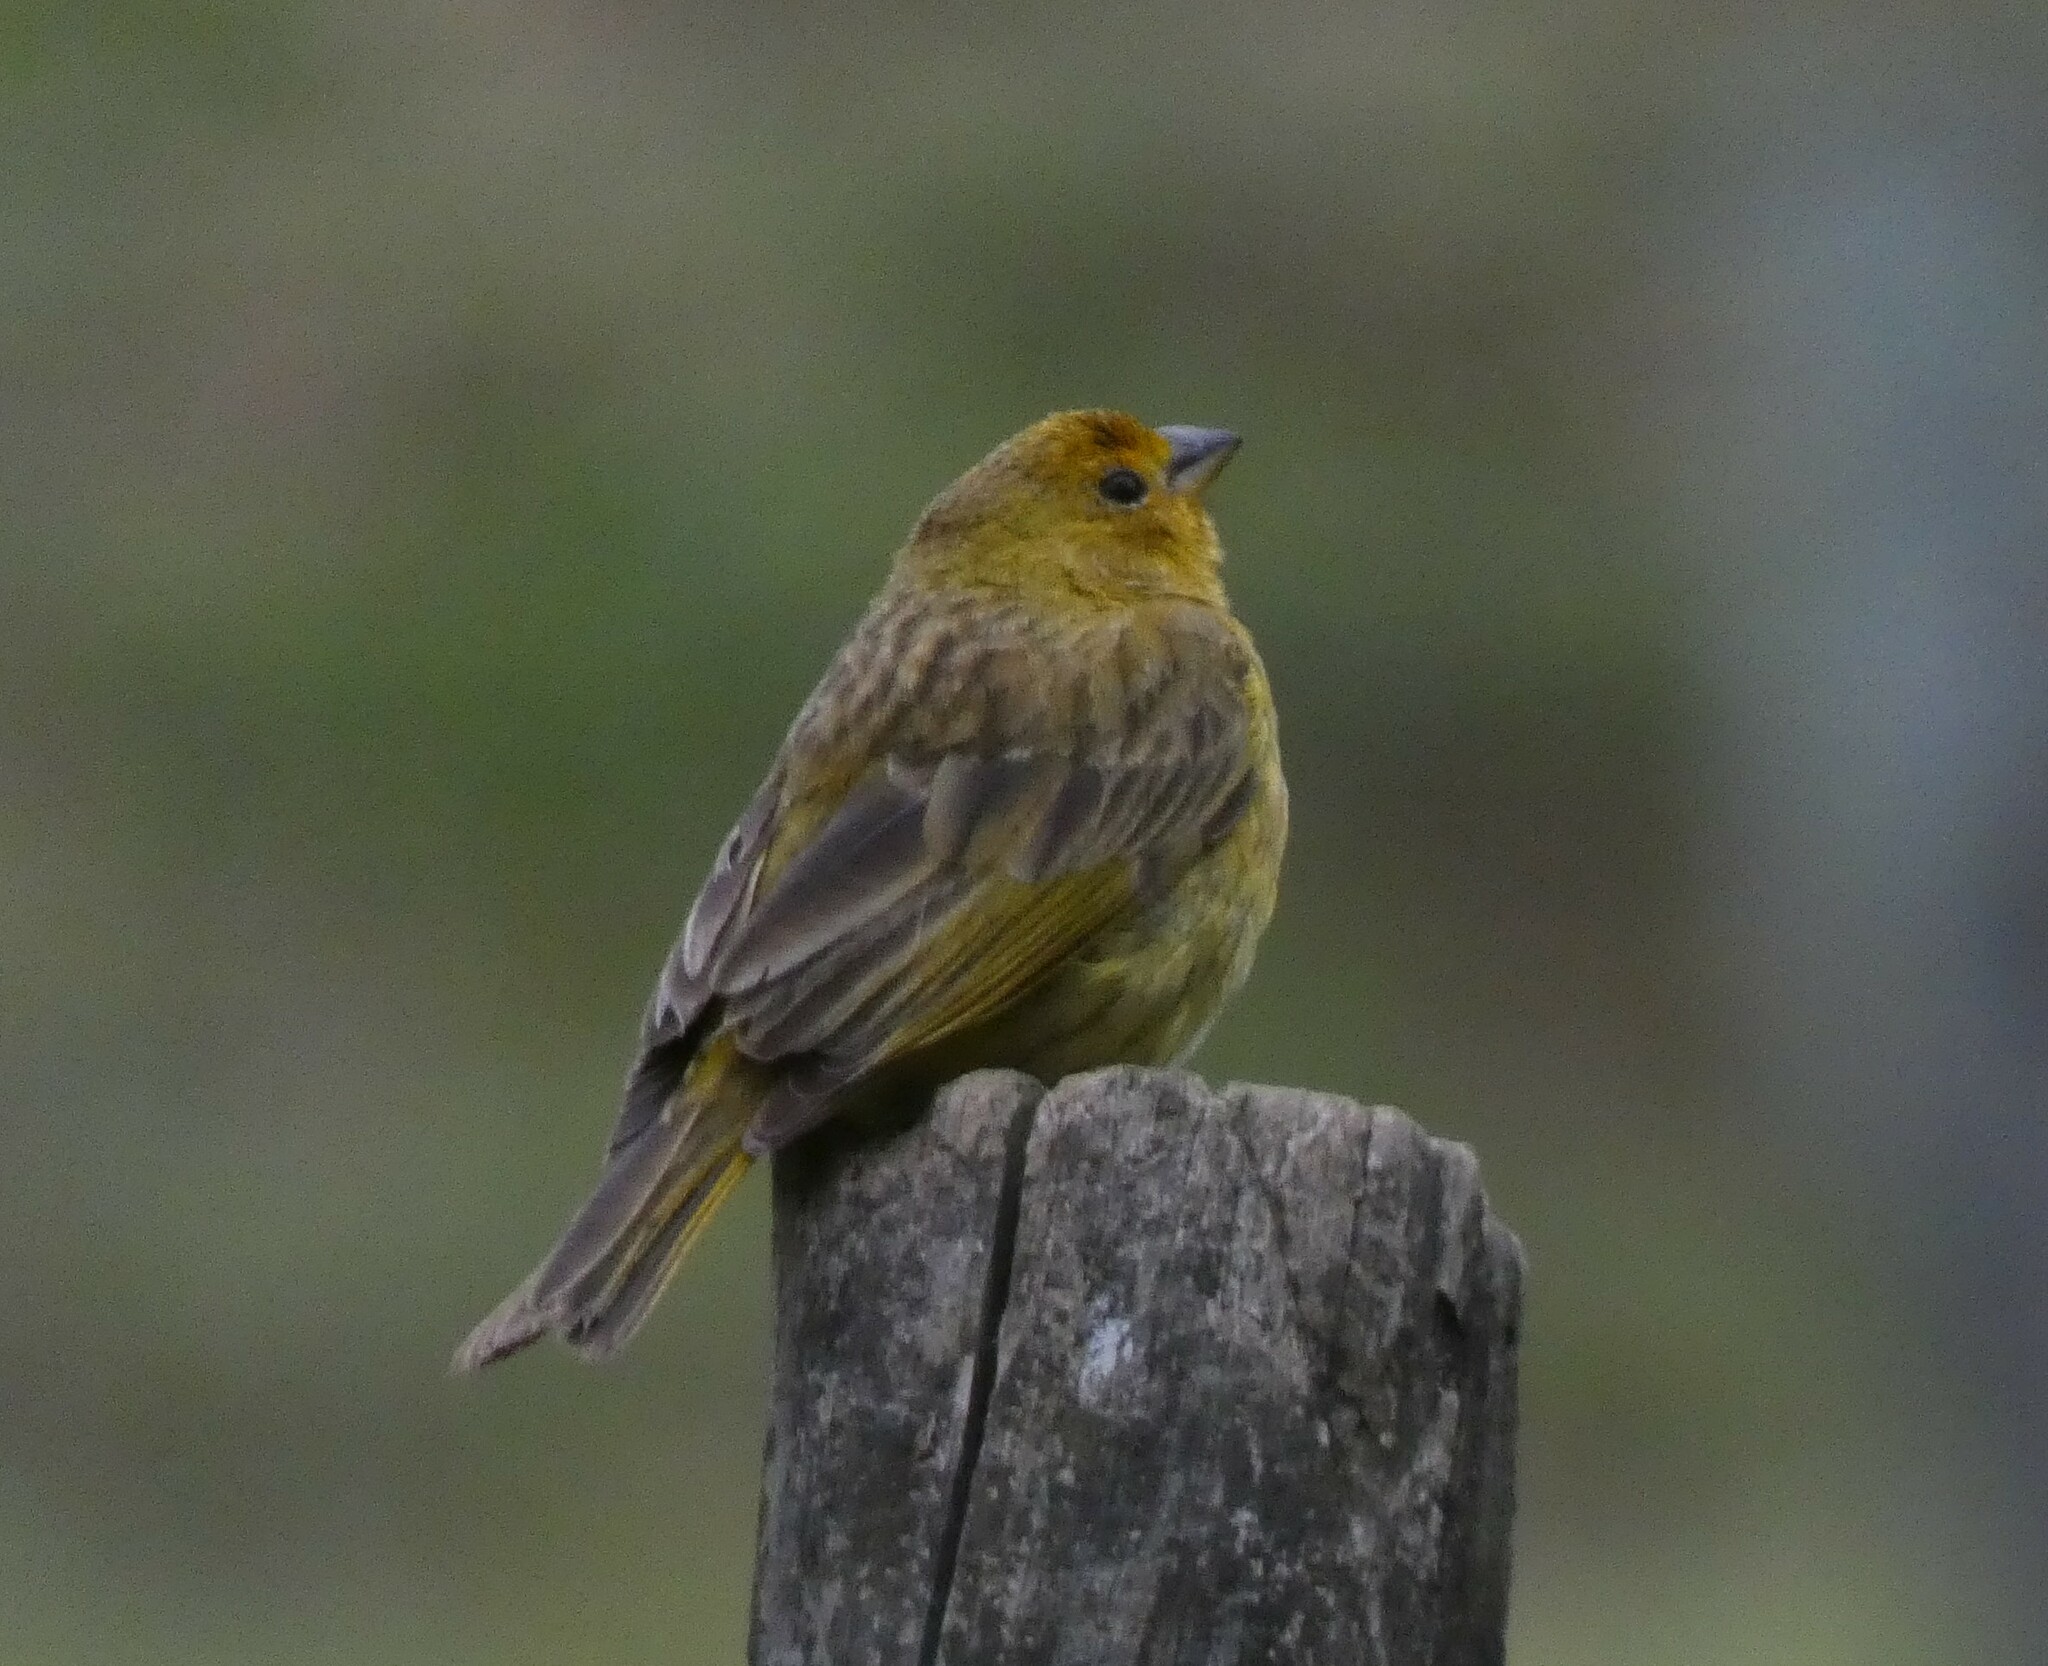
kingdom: Animalia
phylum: Chordata
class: Aves
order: Passeriformes
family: Thraupidae
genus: Sicalis
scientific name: Sicalis flaveola
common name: Saffron finch
